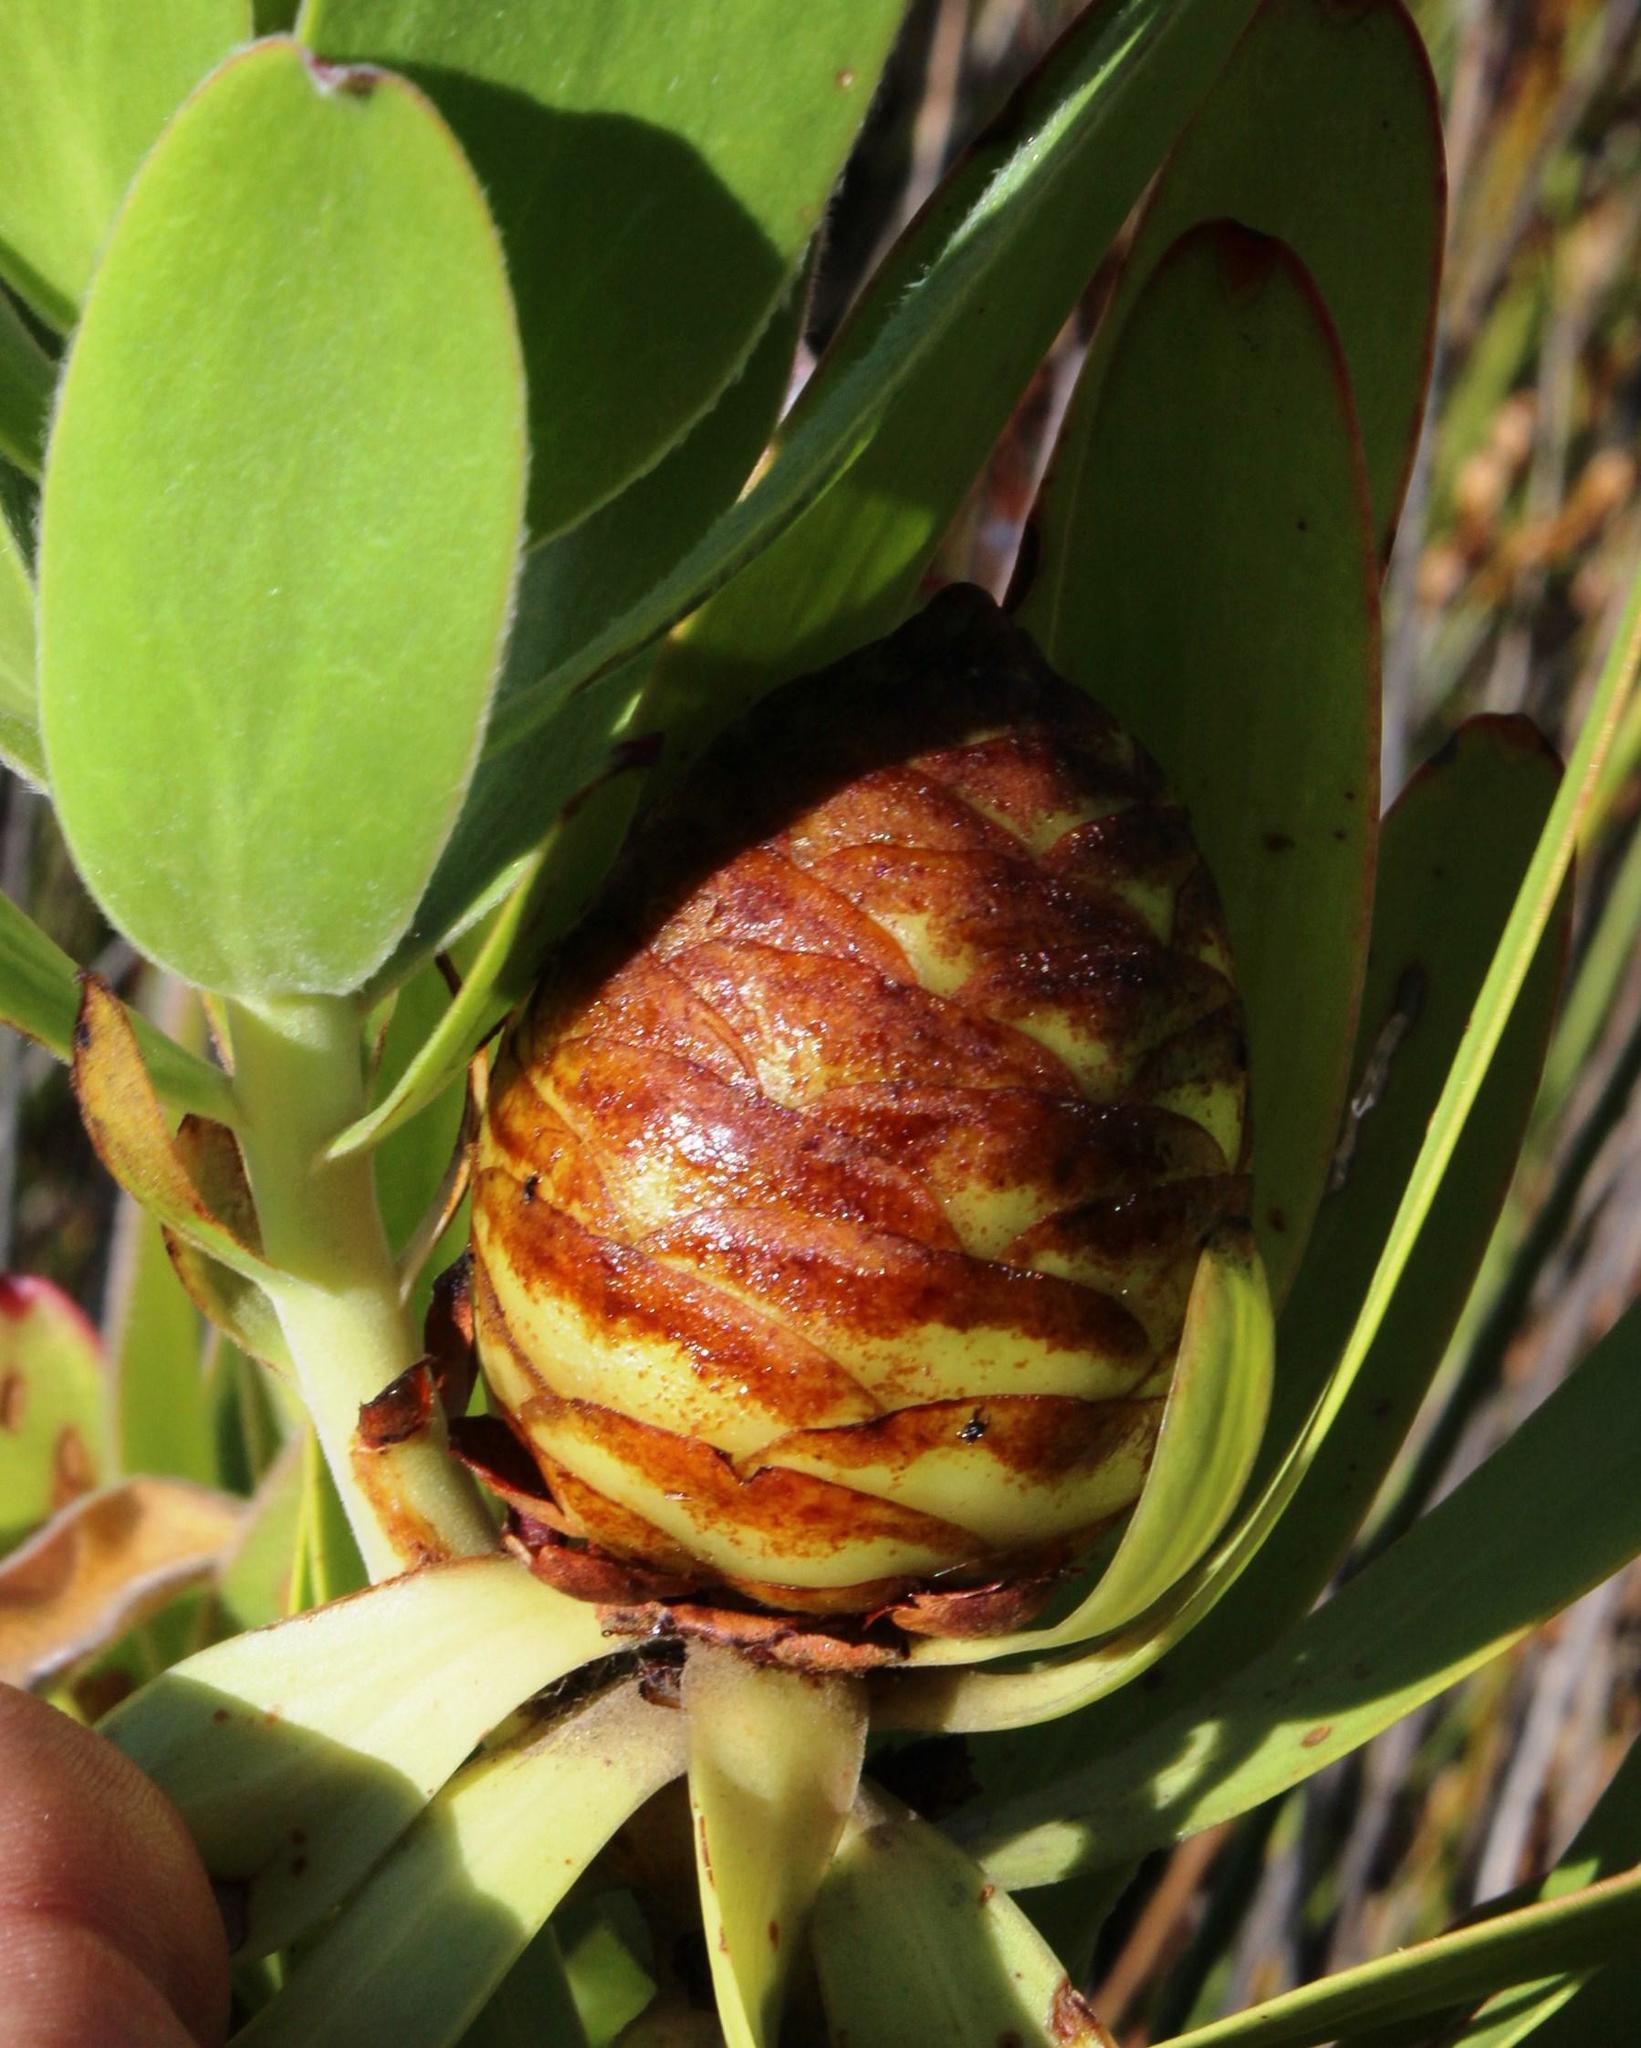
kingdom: Plantae
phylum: Tracheophyta
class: Magnoliopsida
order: Proteales
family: Proteaceae
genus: Leucadendron
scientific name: Leucadendron microcephalum
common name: Oilbract conebush
